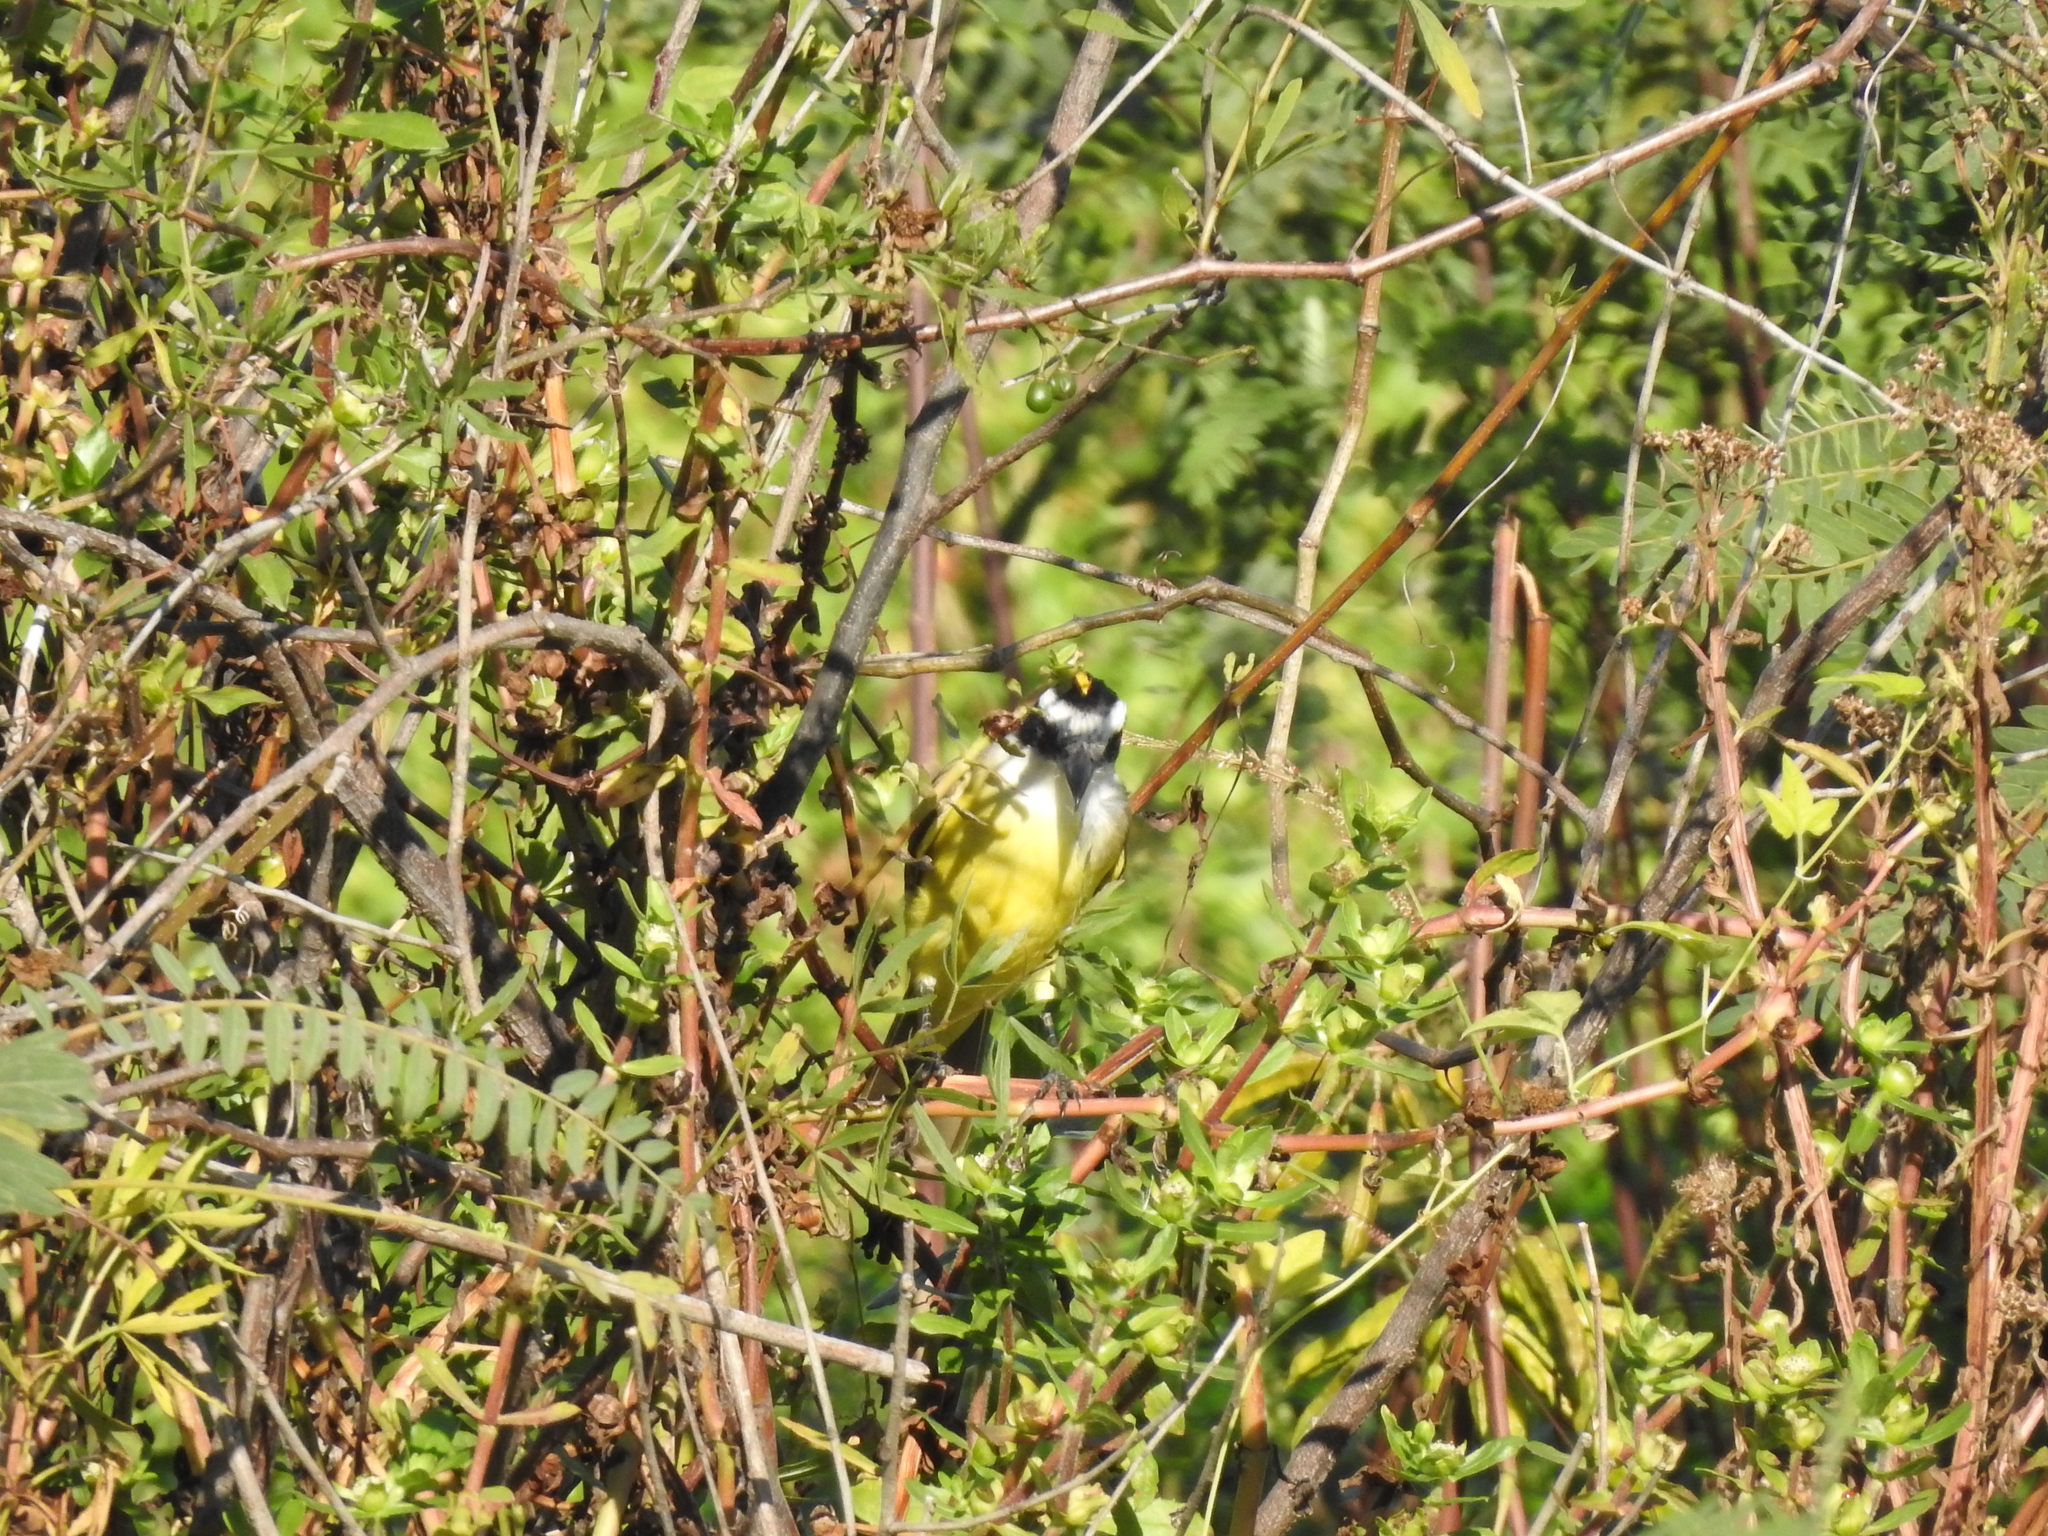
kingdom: Animalia
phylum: Chordata
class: Aves
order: Passeriformes
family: Tyrannidae
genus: Pitangus
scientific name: Pitangus sulphuratus
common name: Great kiskadee
